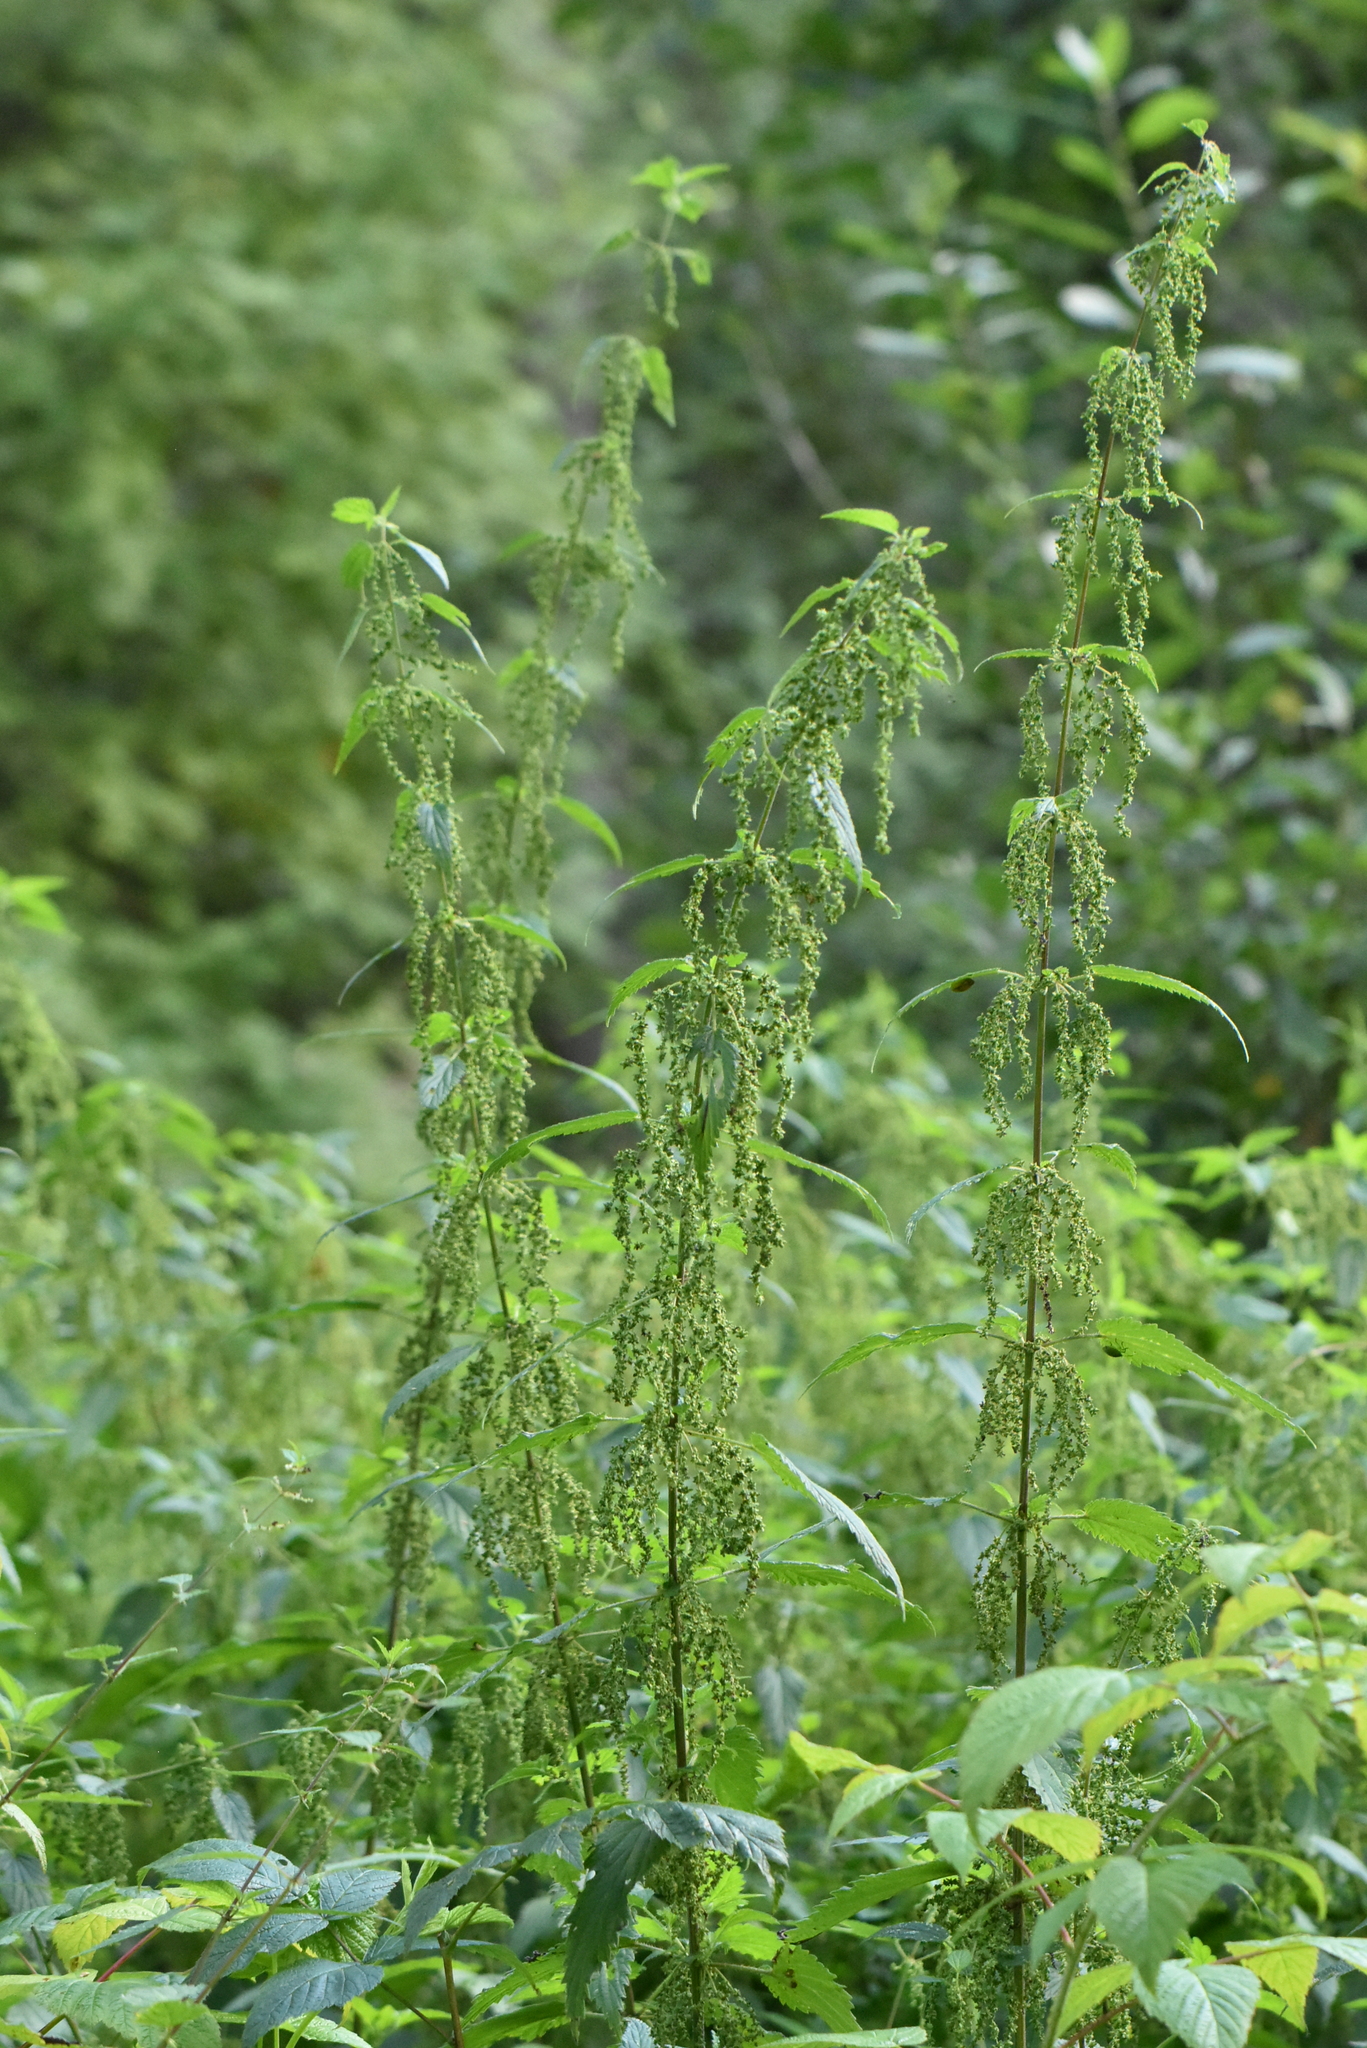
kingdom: Plantae
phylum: Tracheophyta
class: Magnoliopsida
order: Rosales
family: Urticaceae
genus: Urtica
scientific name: Urtica dioica
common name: Common nettle
